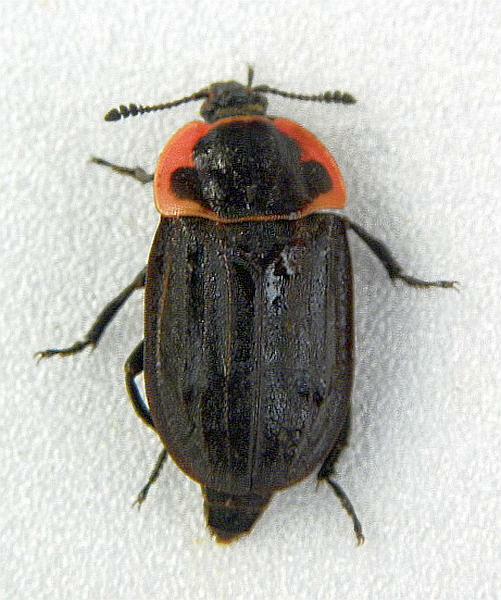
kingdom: Animalia
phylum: Arthropoda
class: Insecta
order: Coleoptera
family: Staphylinidae
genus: Oiceoptoma
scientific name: Oiceoptoma noveboracense
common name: Margined carrion beetle
